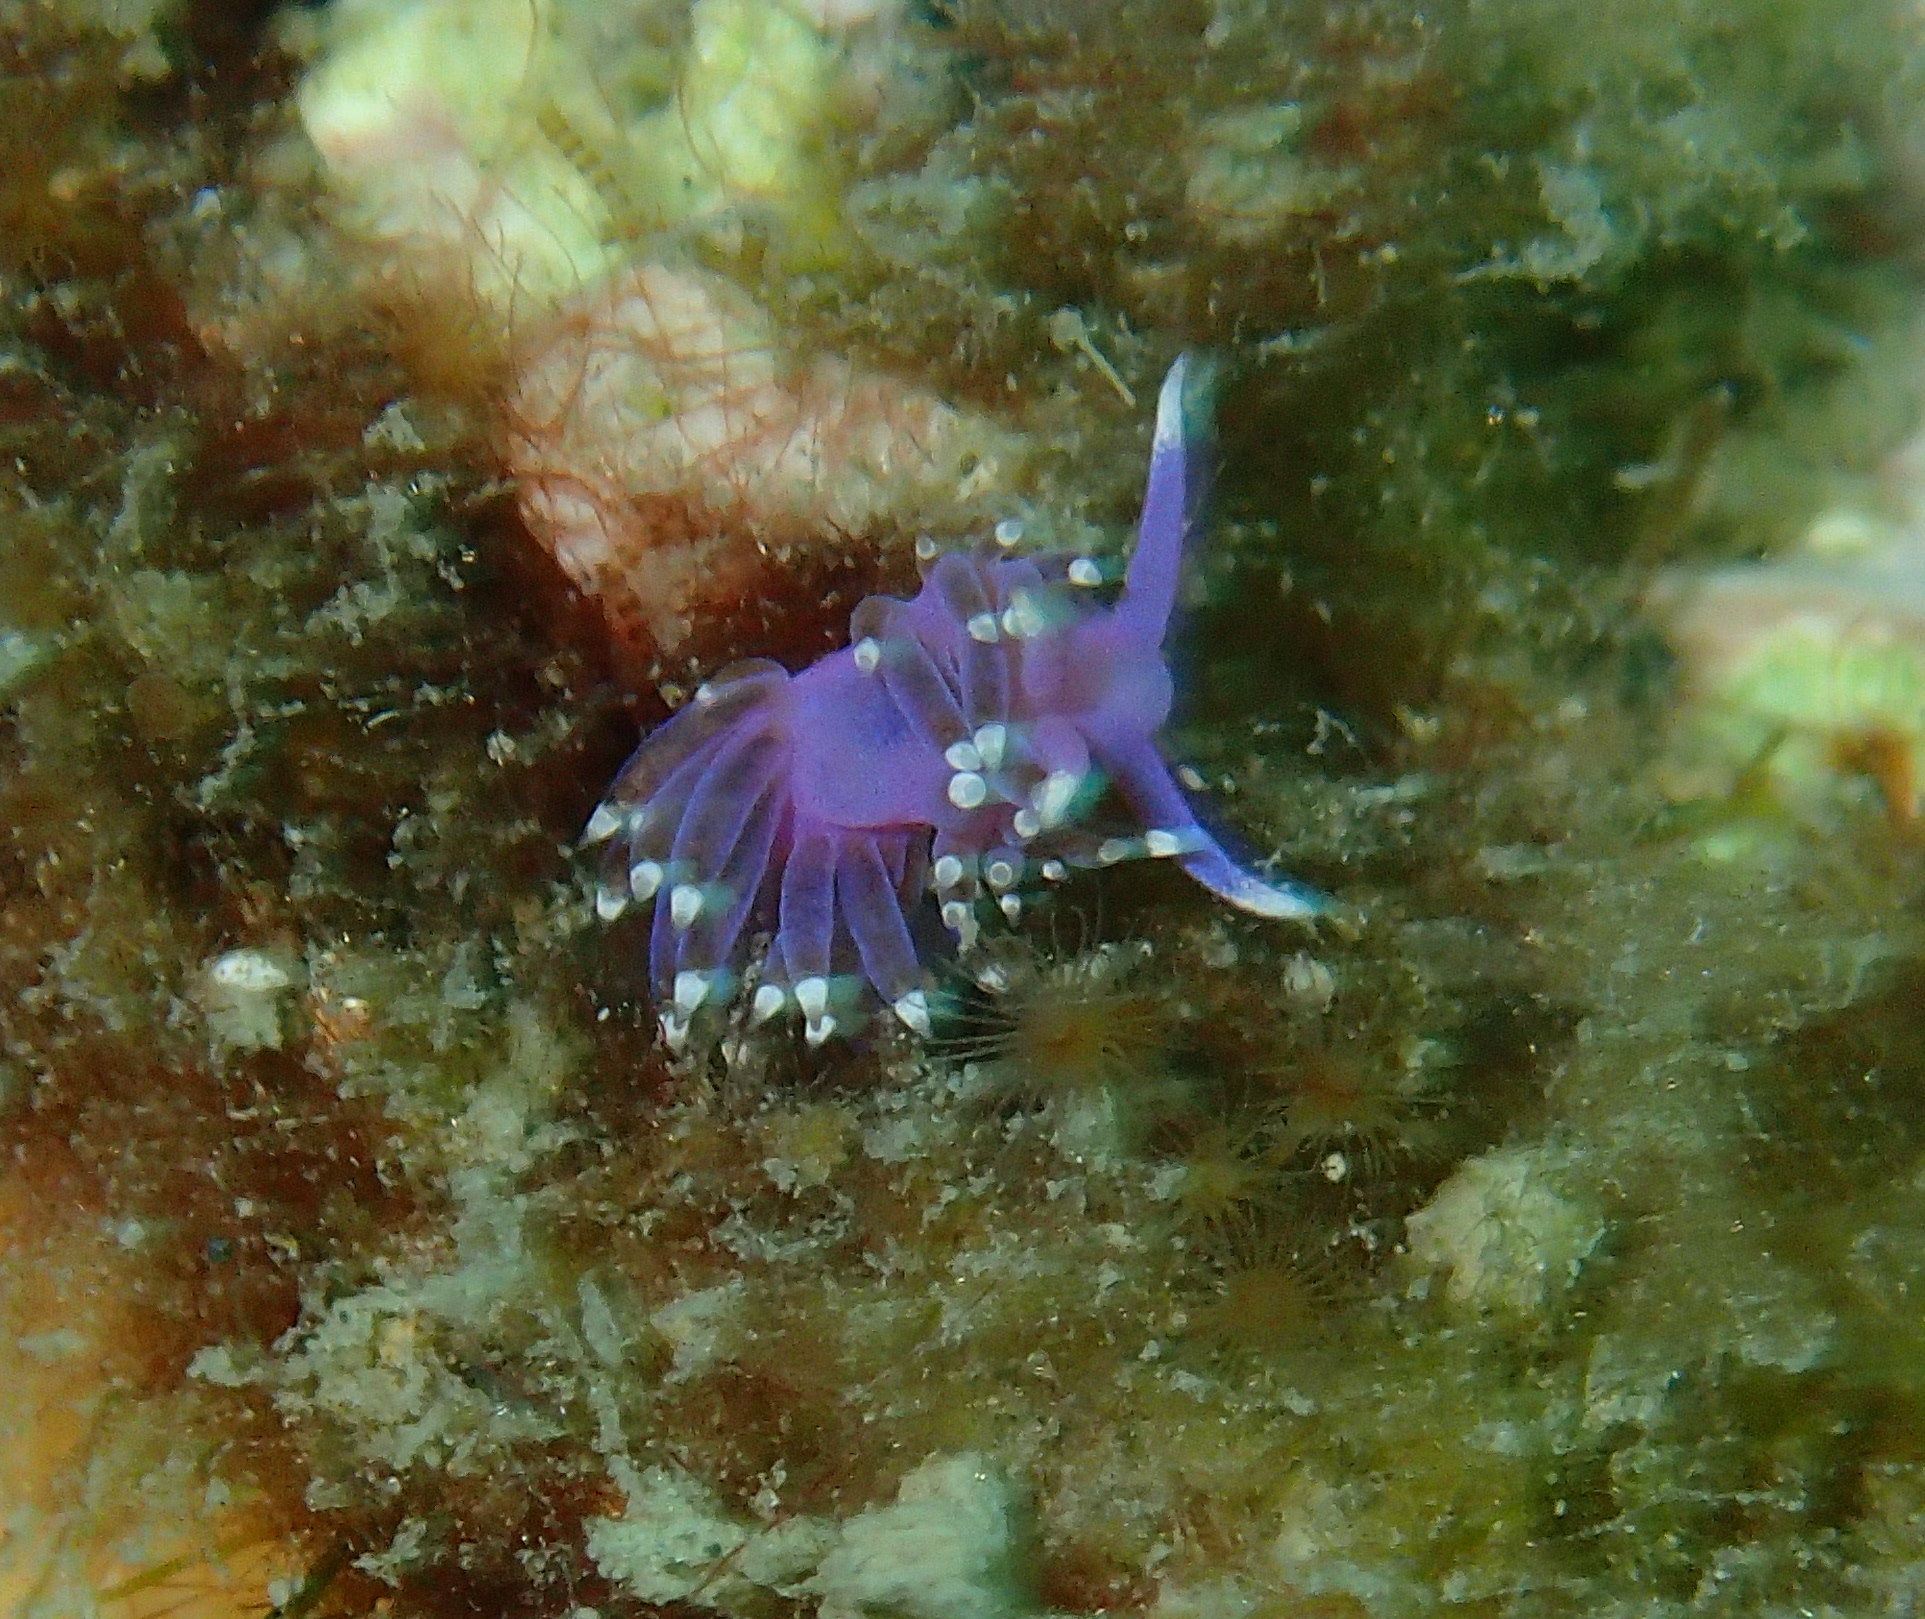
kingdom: Animalia
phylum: Mollusca
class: Gastropoda
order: Nudibranchia
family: Flabellinidae
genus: Edmundsella
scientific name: Edmundsella pedata
